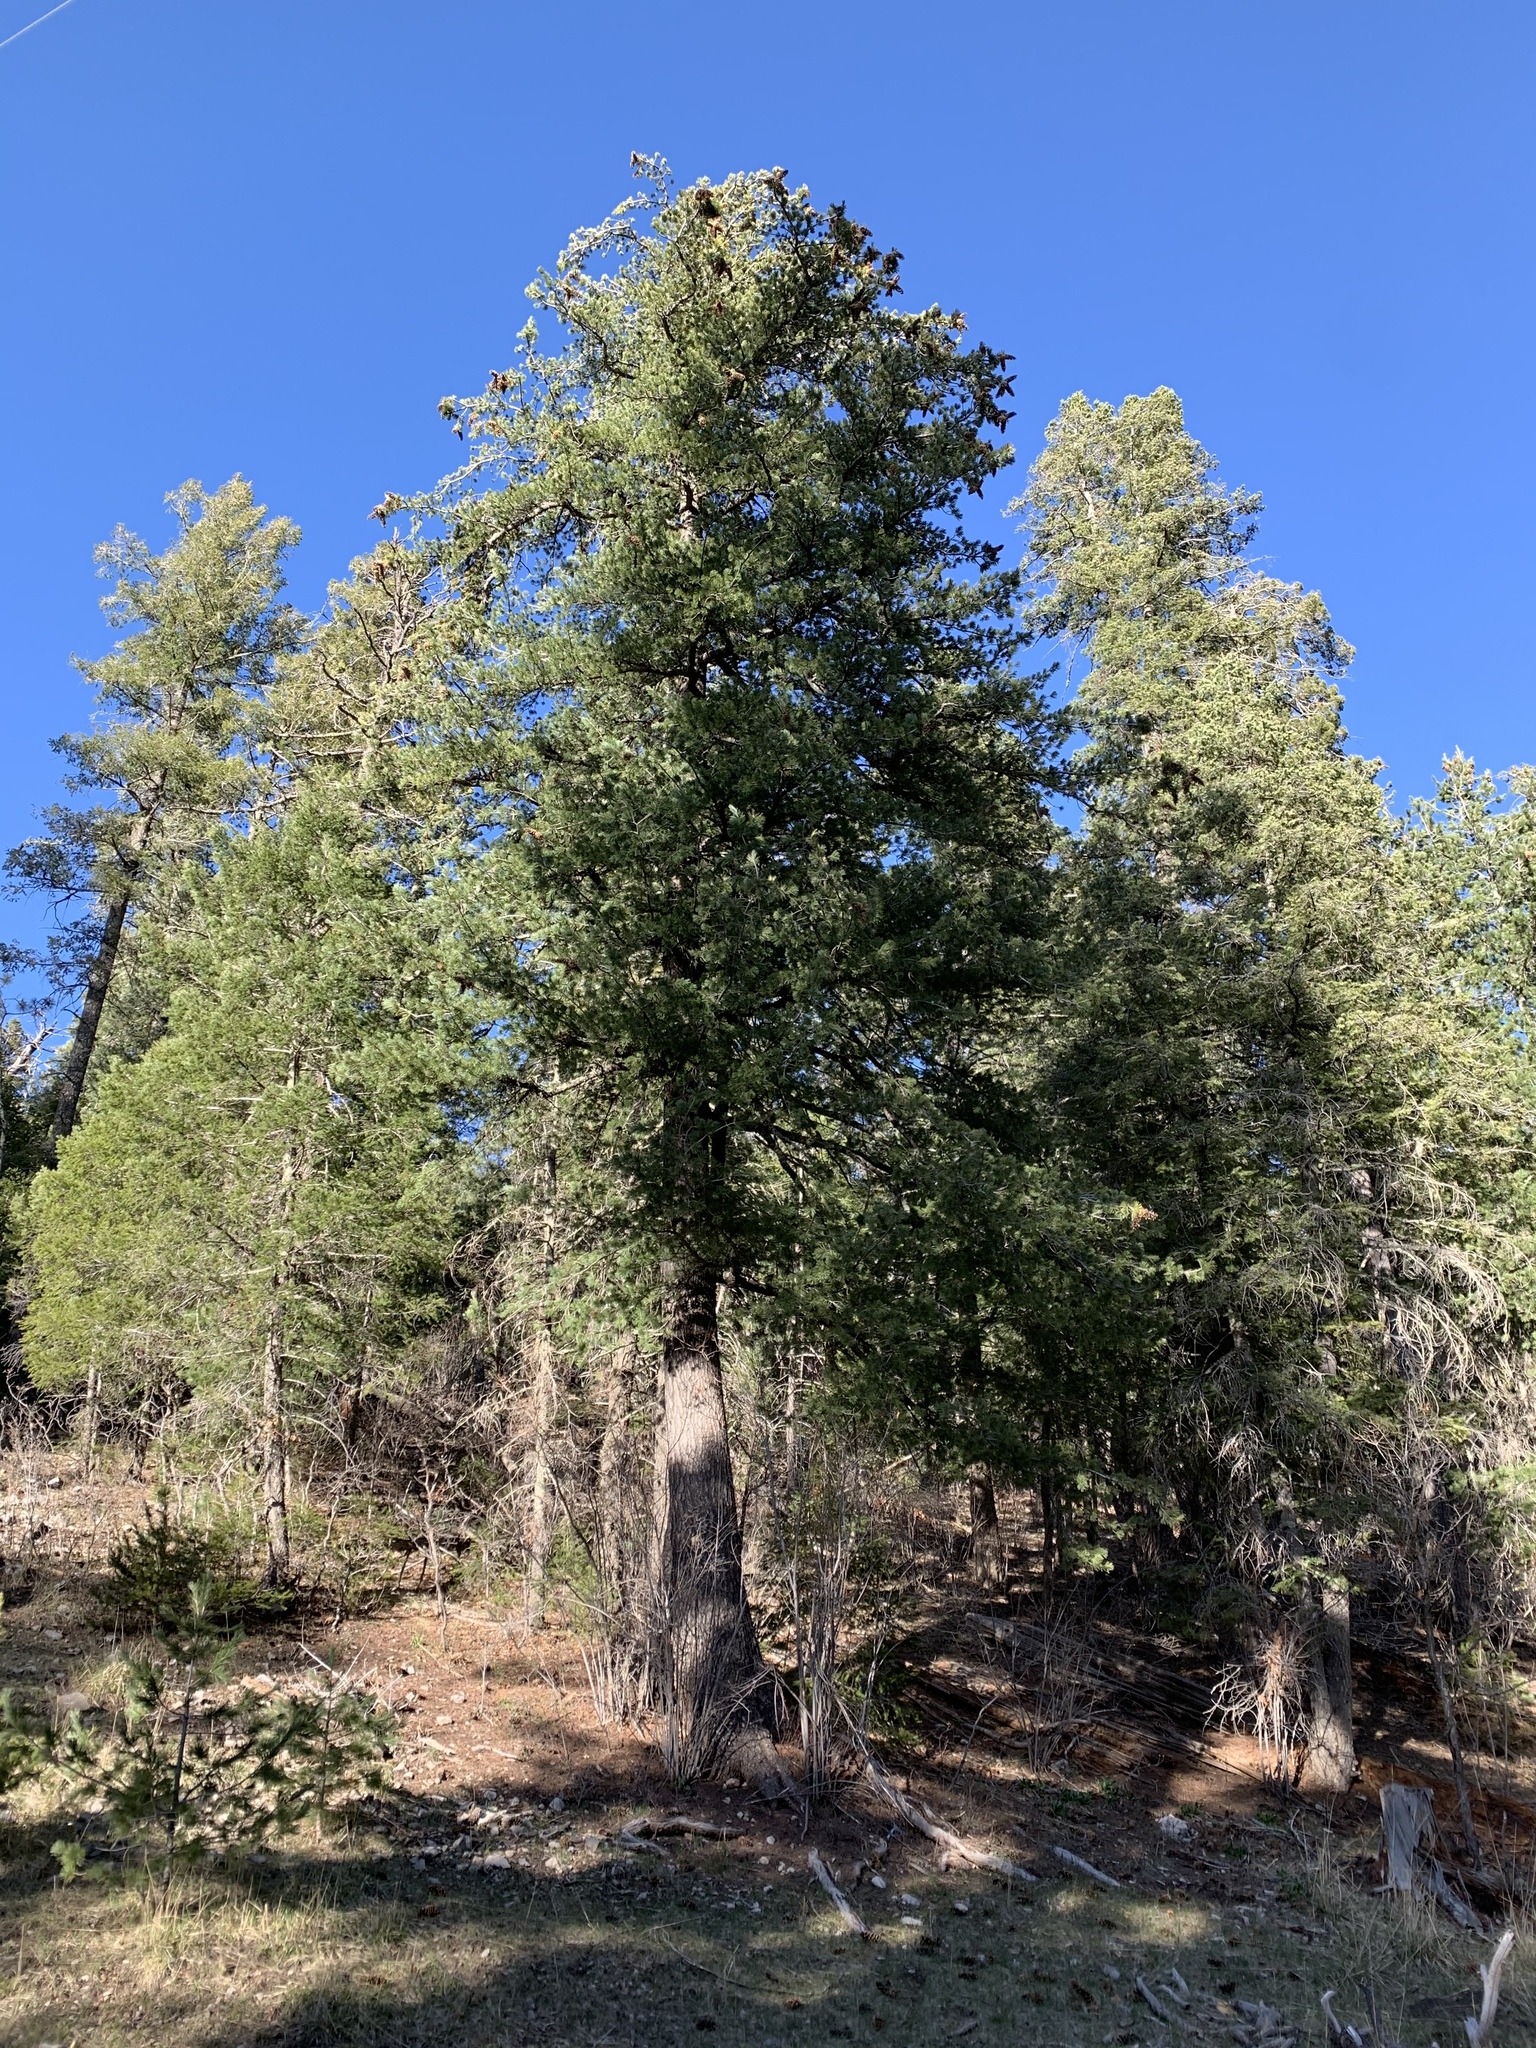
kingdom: Plantae
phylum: Tracheophyta
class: Pinopsida
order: Pinales
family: Pinaceae
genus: Pinus
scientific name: Pinus strobiformis
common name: Southwestern white pine
